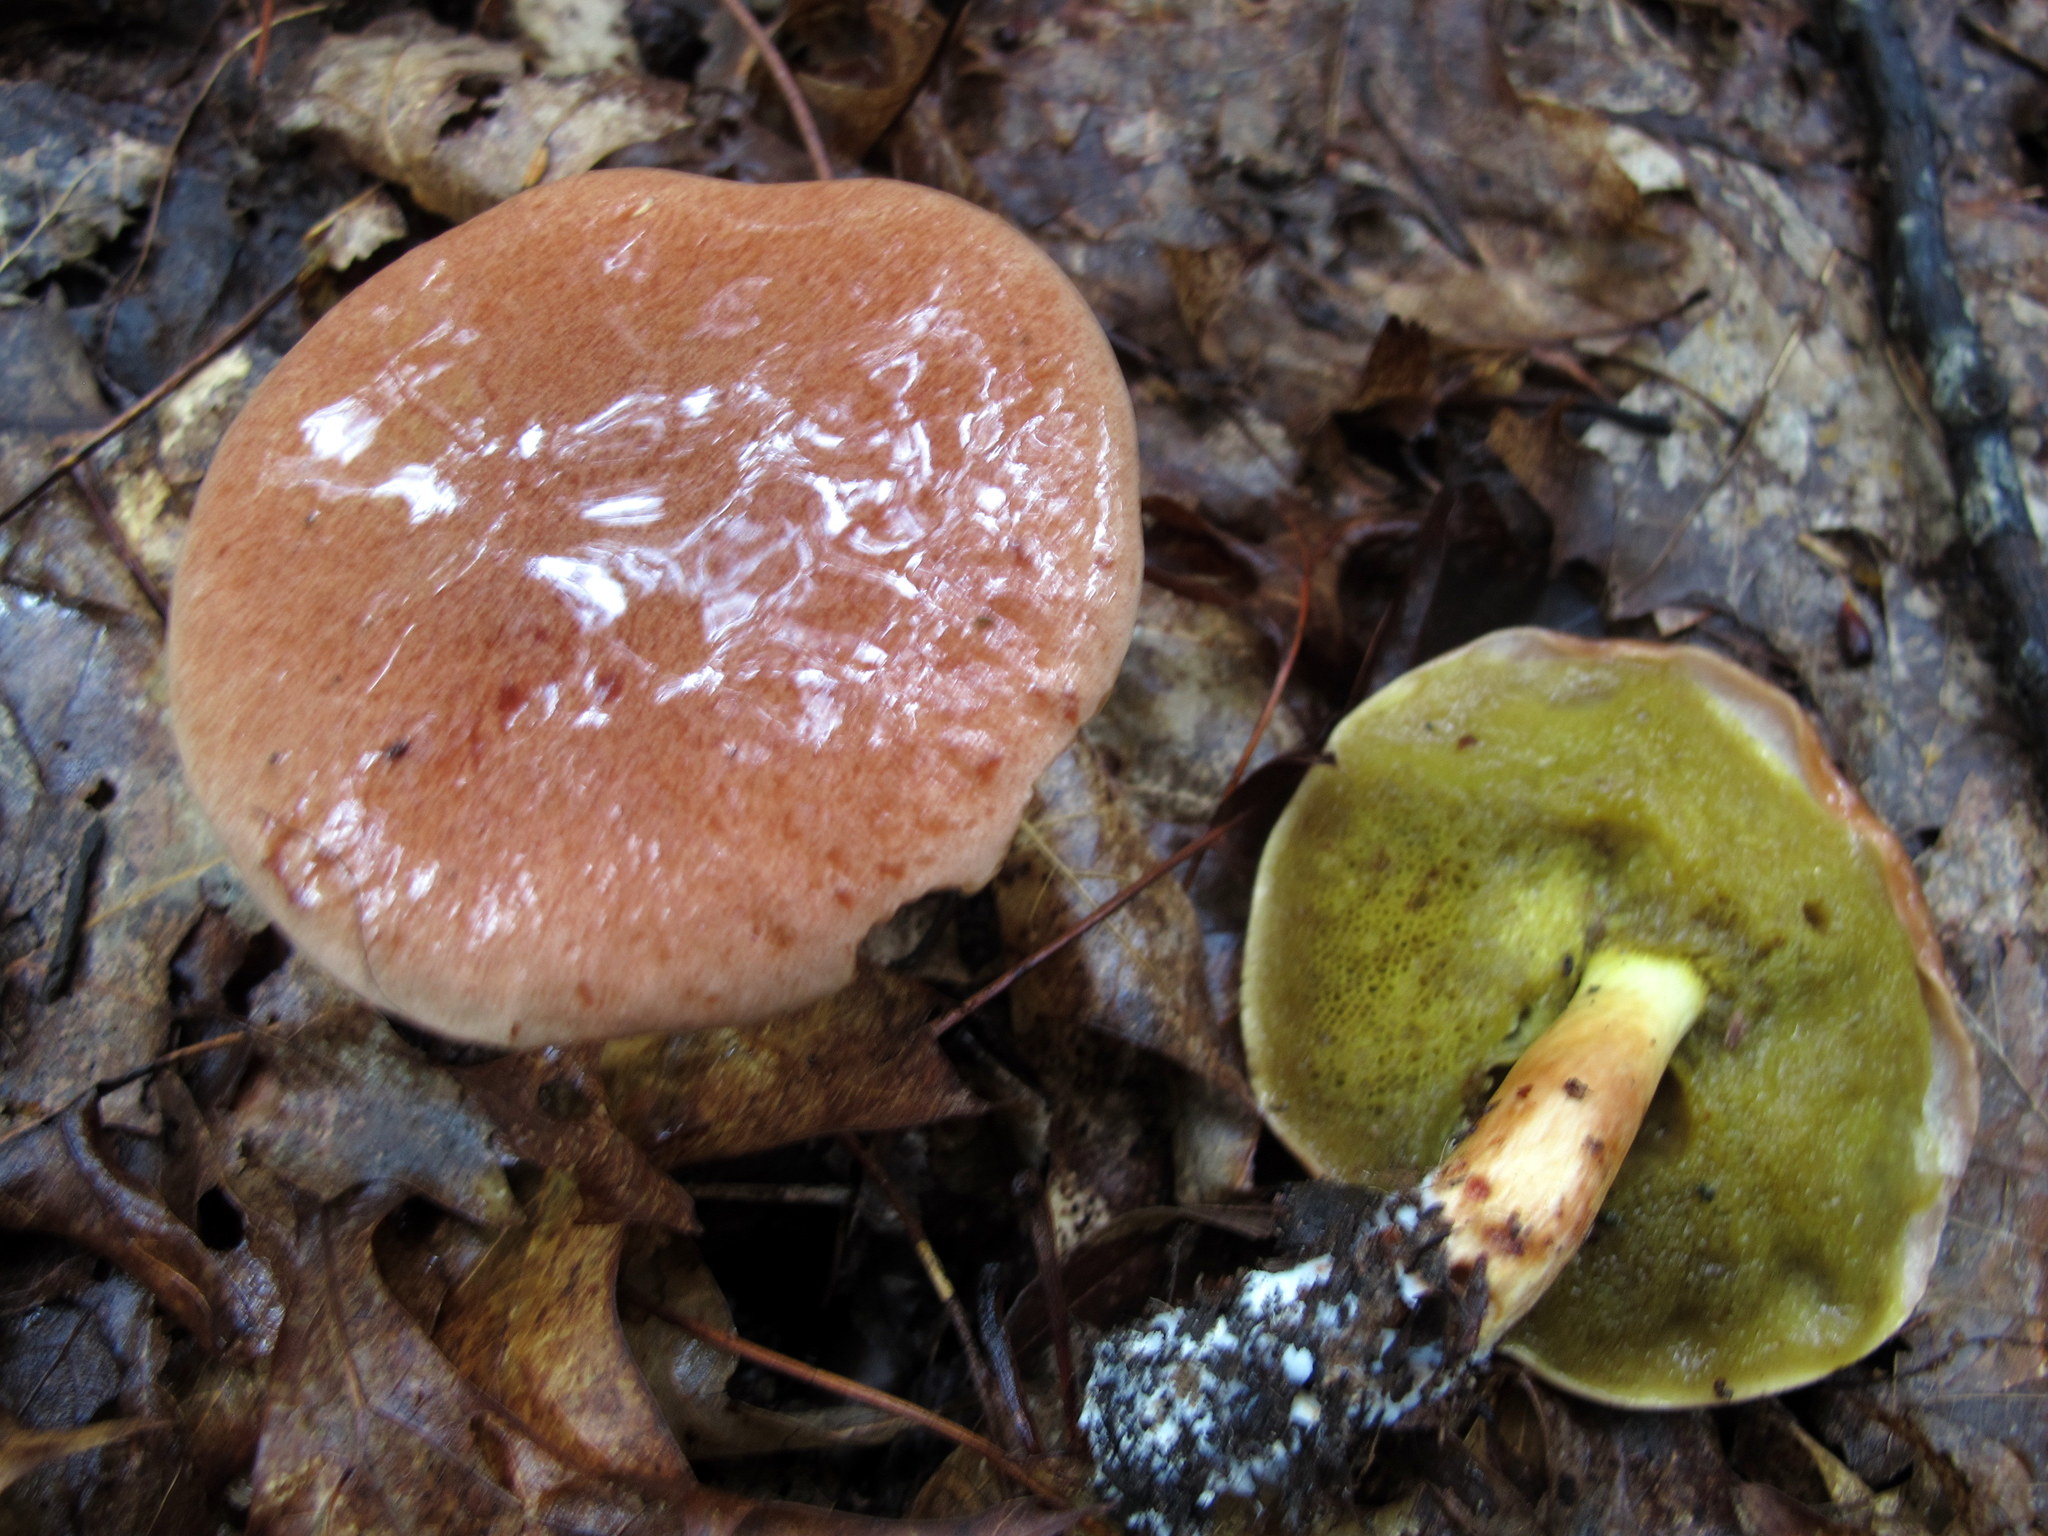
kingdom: Fungi
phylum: Basidiomycota
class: Agaricomycetes
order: Boletales
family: Boletaceae
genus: Aureoboletus
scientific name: Aureoboletus auriporus
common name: Sour gold-pored bolete
